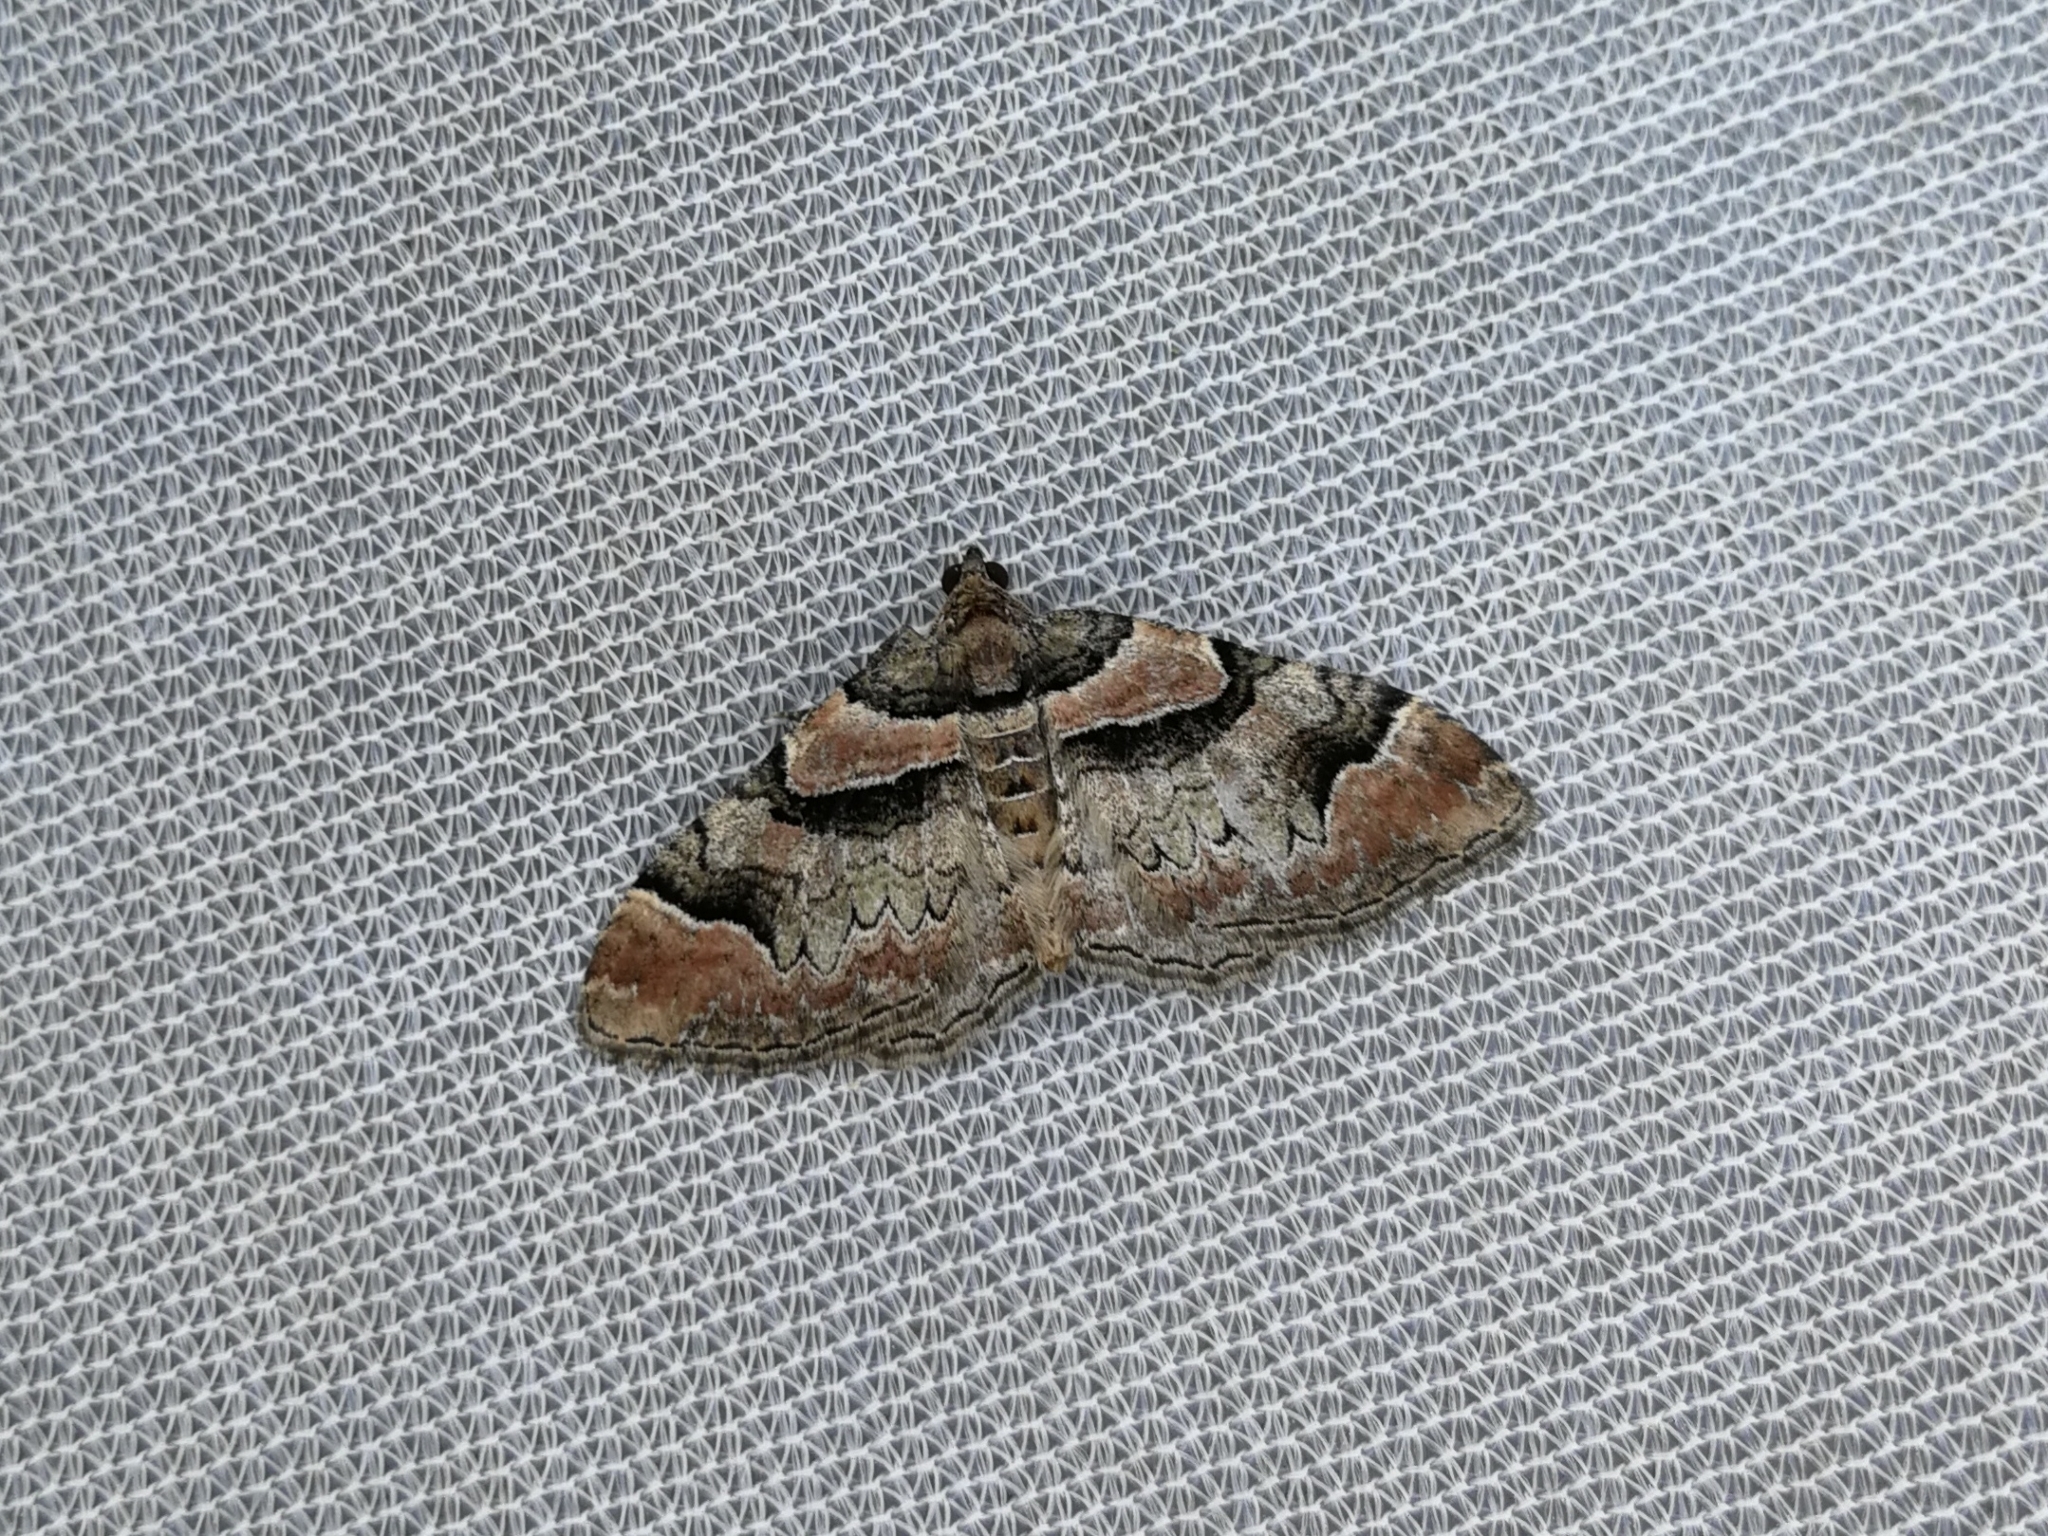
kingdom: Animalia
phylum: Arthropoda
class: Insecta
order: Lepidoptera
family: Geometridae
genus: Catarhoe
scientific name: Catarhoe rubidata
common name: Ruddy carpet
